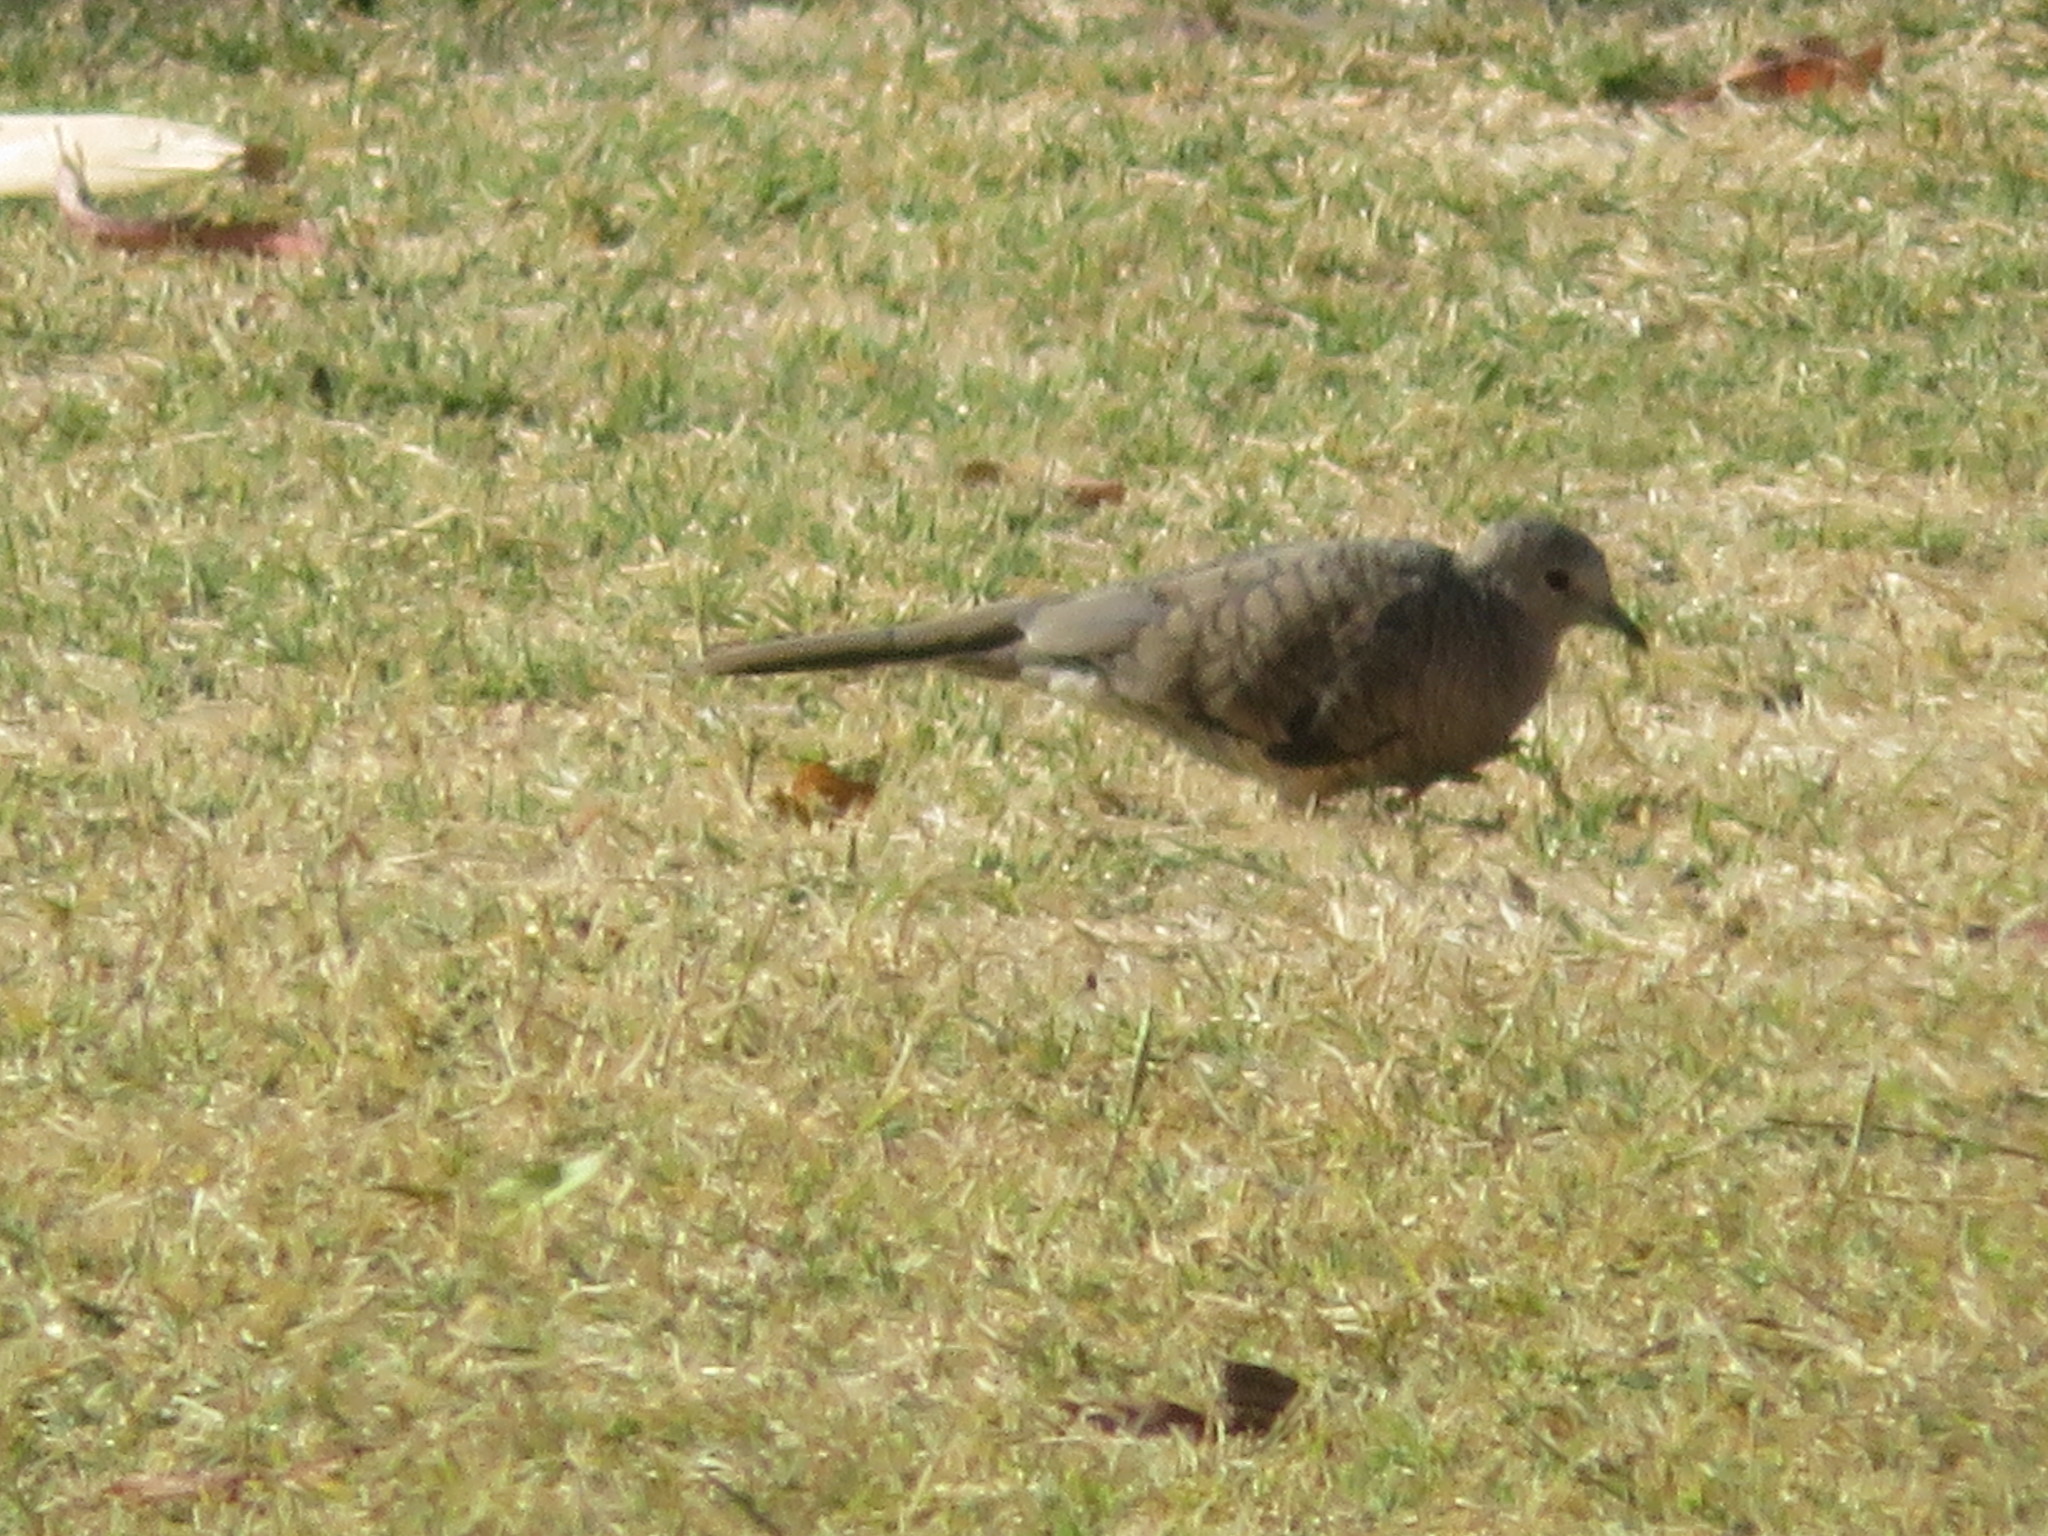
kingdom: Animalia
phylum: Chordata
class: Aves
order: Columbiformes
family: Columbidae
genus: Columbina
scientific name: Columbina inca
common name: Inca dove
